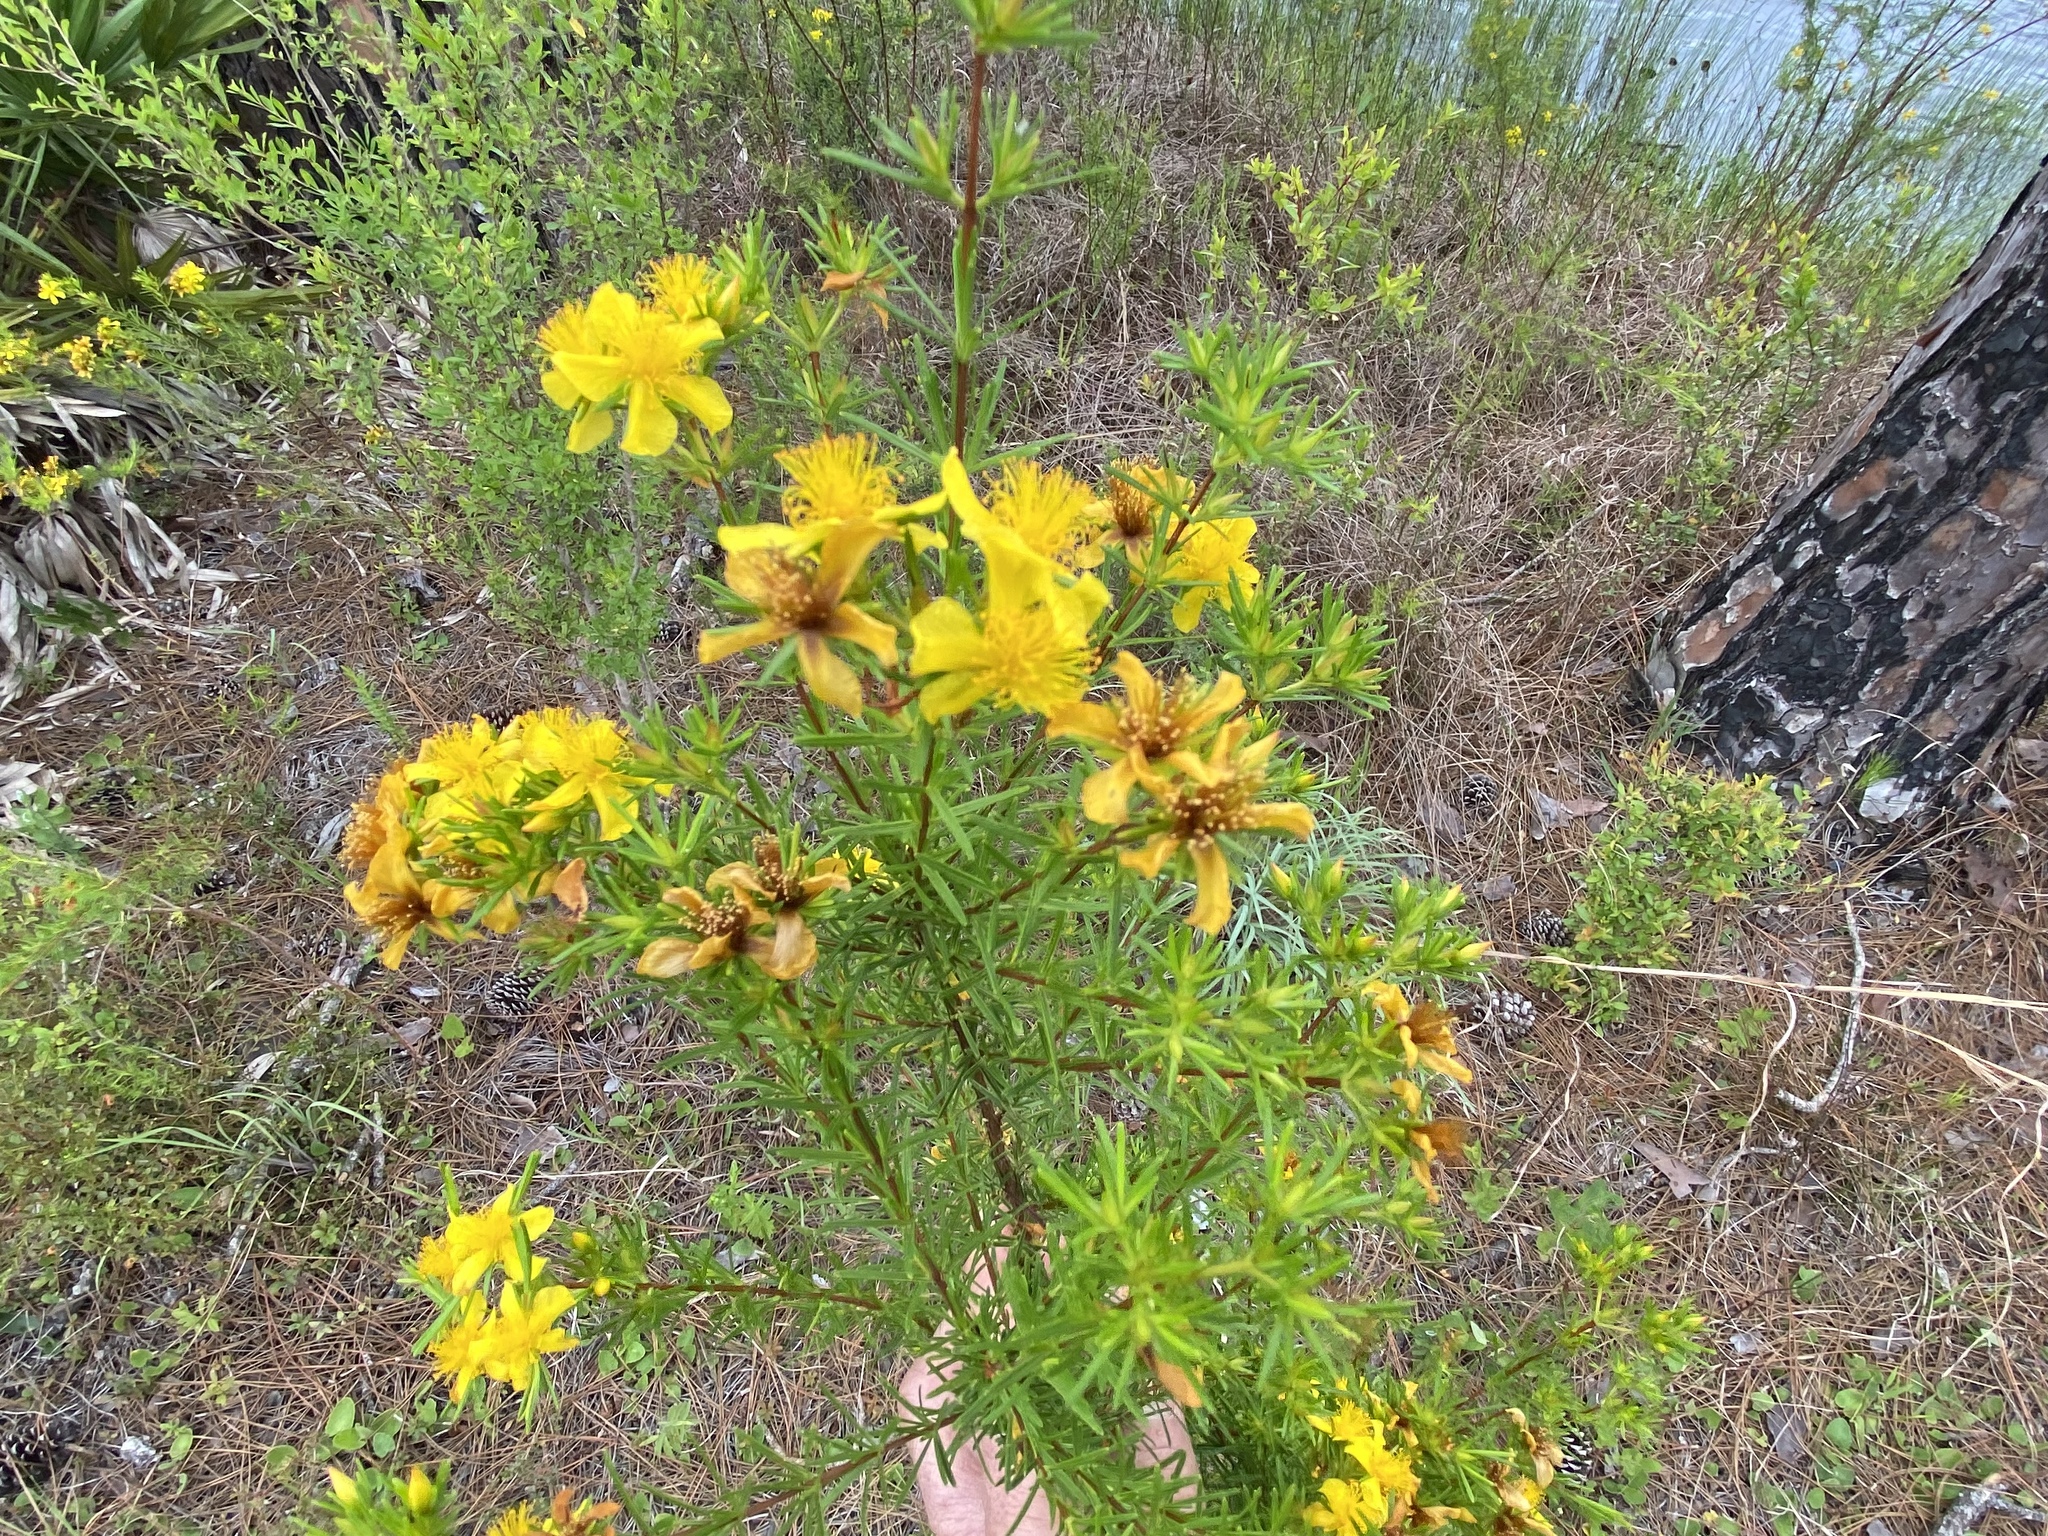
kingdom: Plantae
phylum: Tracheophyta
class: Magnoliopsida
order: Malpighiales
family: Hypericaceae
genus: Hypericum
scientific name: Hypericum fasciculatum
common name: Peelbark st. john's wort
